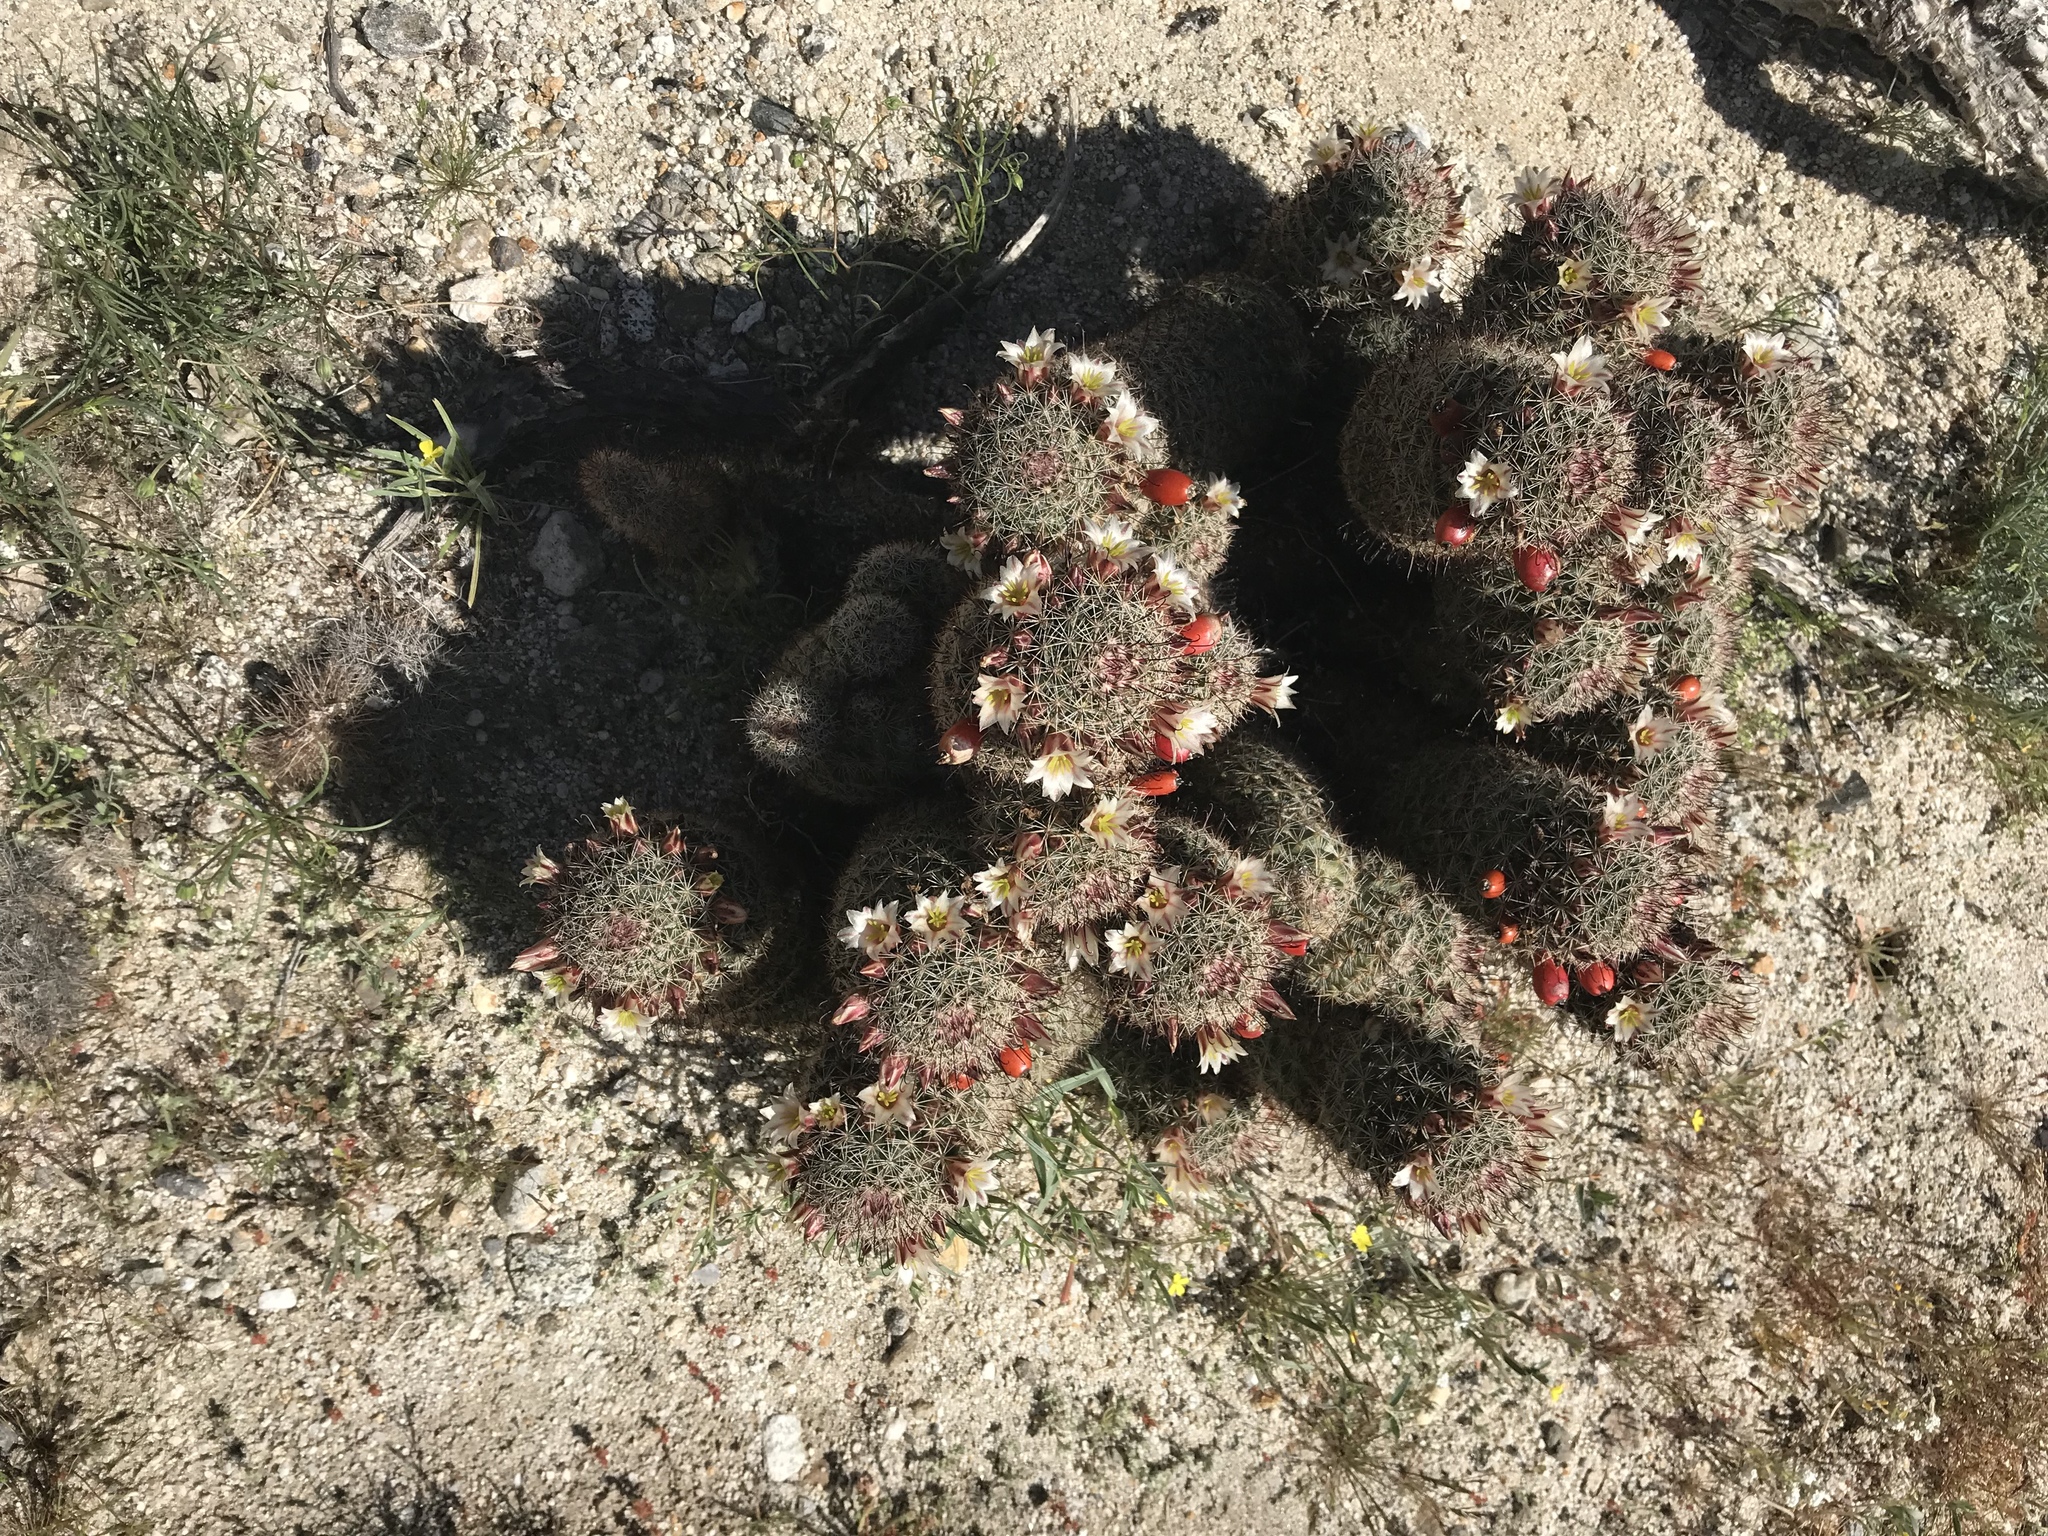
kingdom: Plantae
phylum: Tracheophyta
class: Magnoliopsida
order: Caryophyllales
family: Cactaceae
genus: Cochemiea
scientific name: Cochemiea dioica
